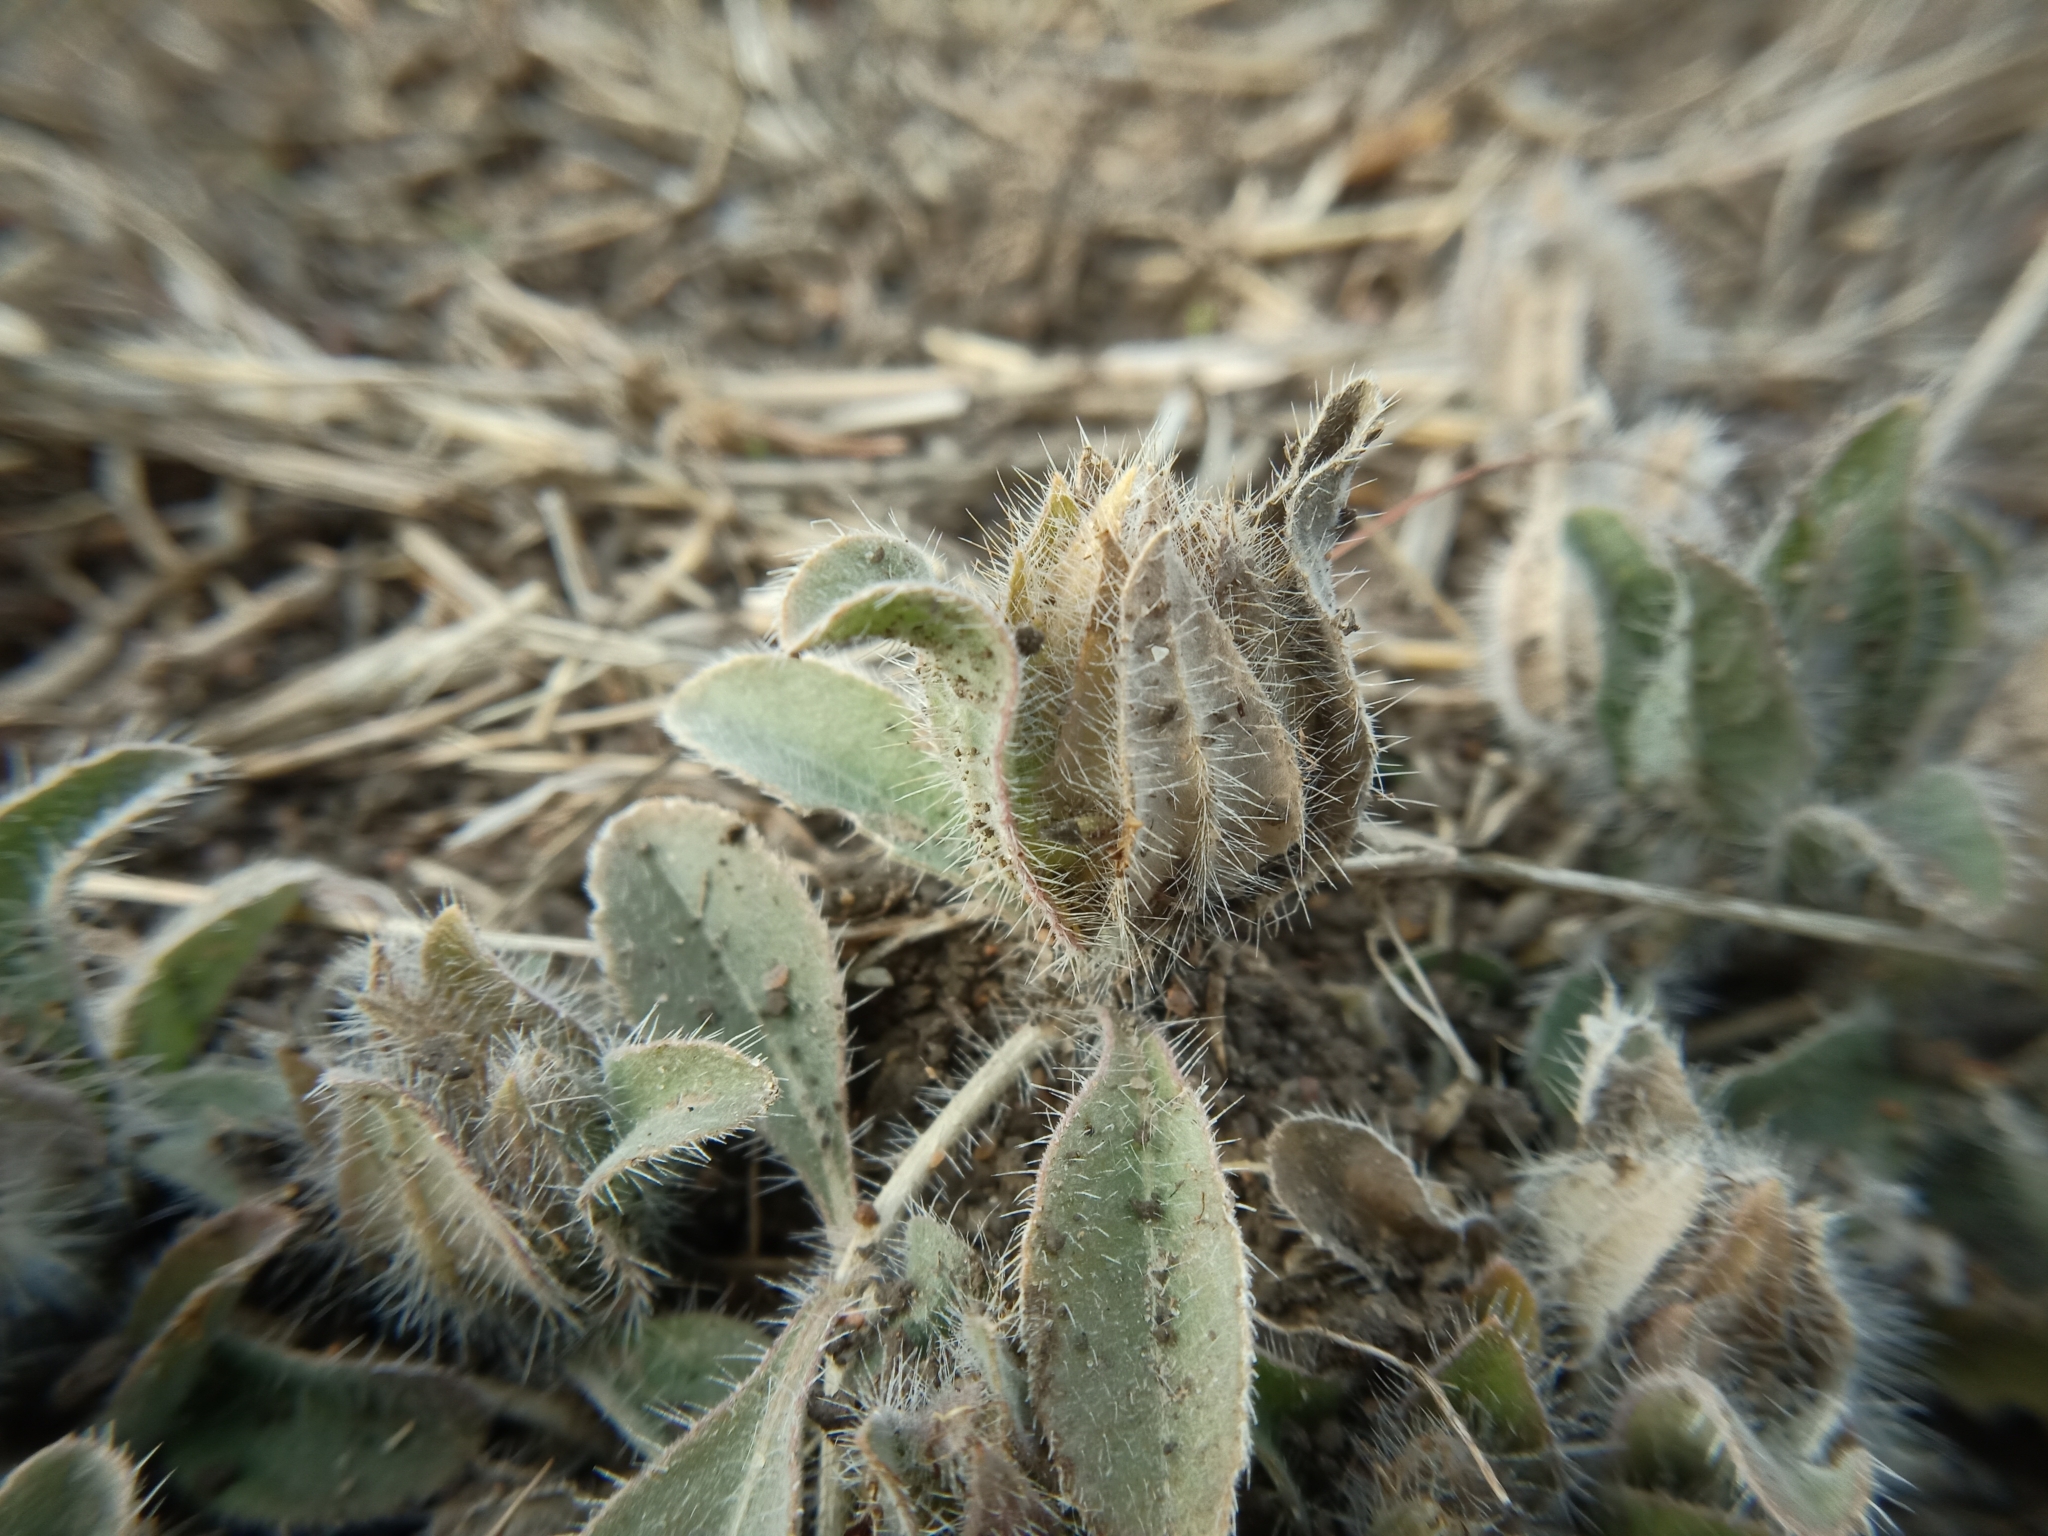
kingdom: Plantae
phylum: Tracheophyta
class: Magnoliopsida
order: Lamiales
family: Acanthaceae
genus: Strobilanthes
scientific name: Strobilanthes urens
